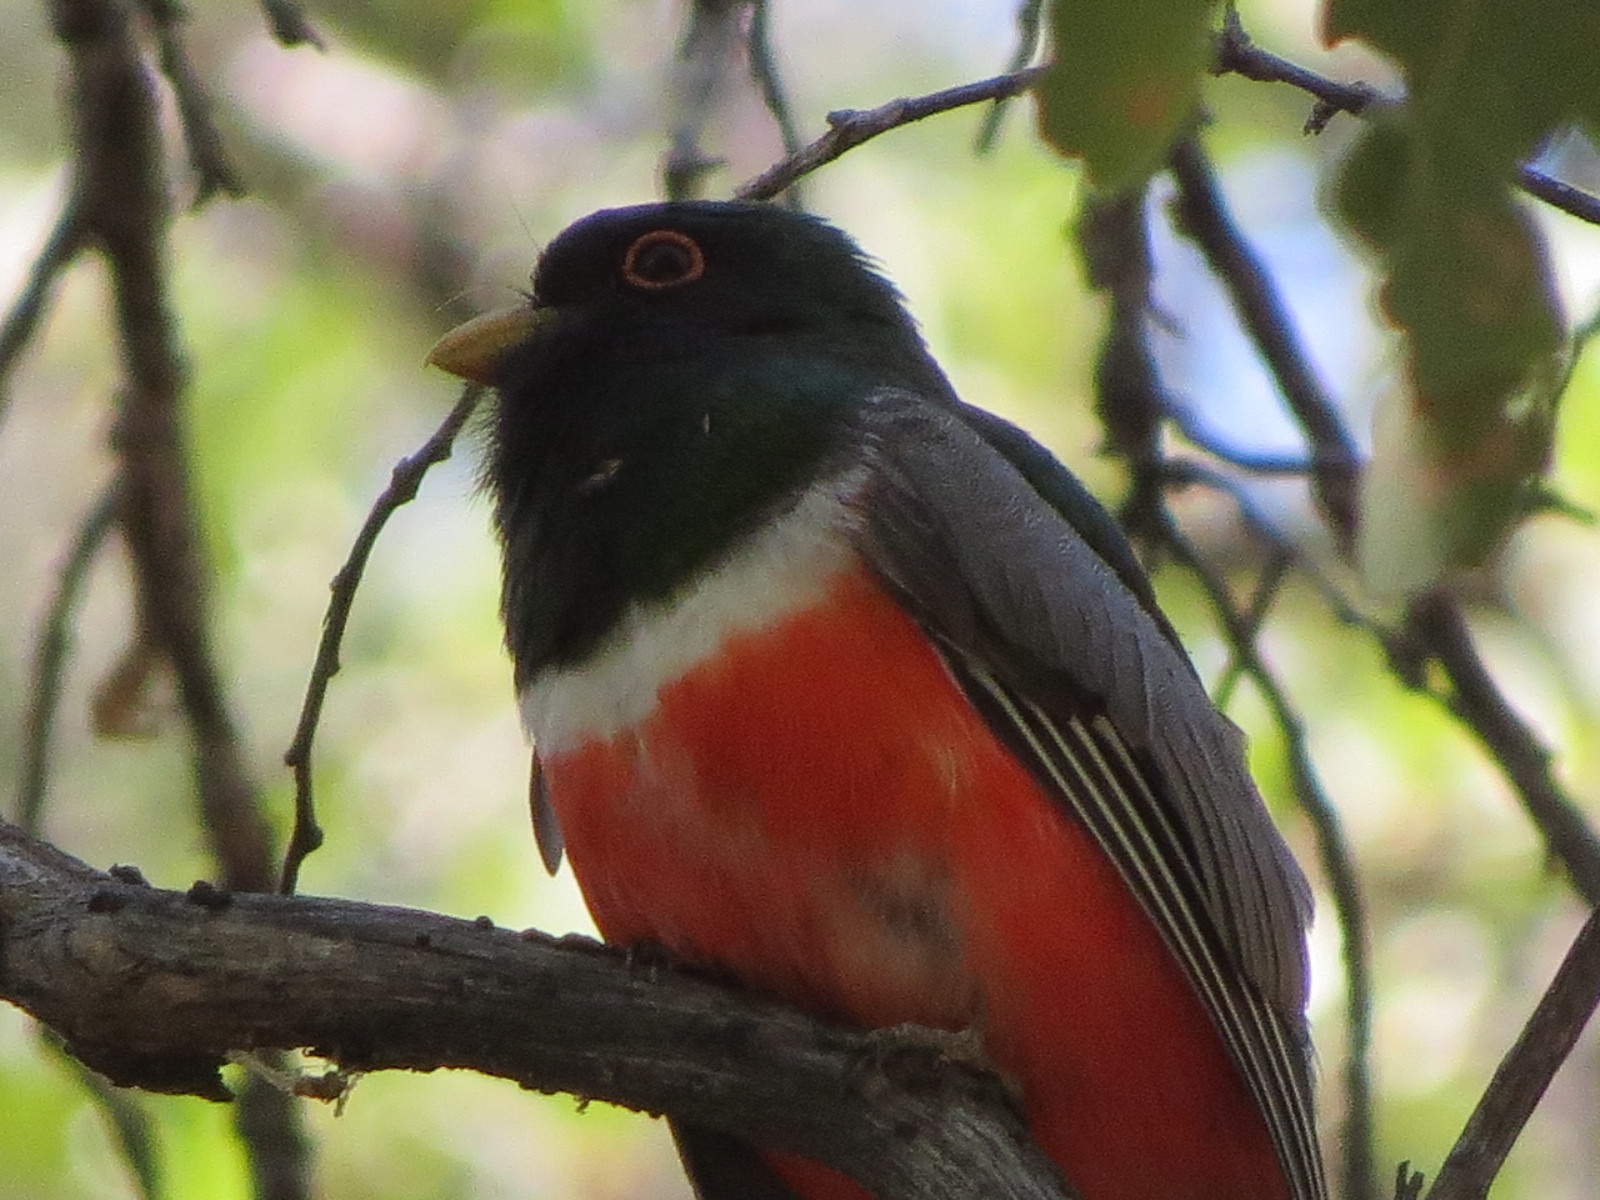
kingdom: Animalia
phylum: Chordata
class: Aves
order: Trogoniformes
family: Trogonidae
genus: Trogon
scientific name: Trogon elegans
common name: Elegant trogon
